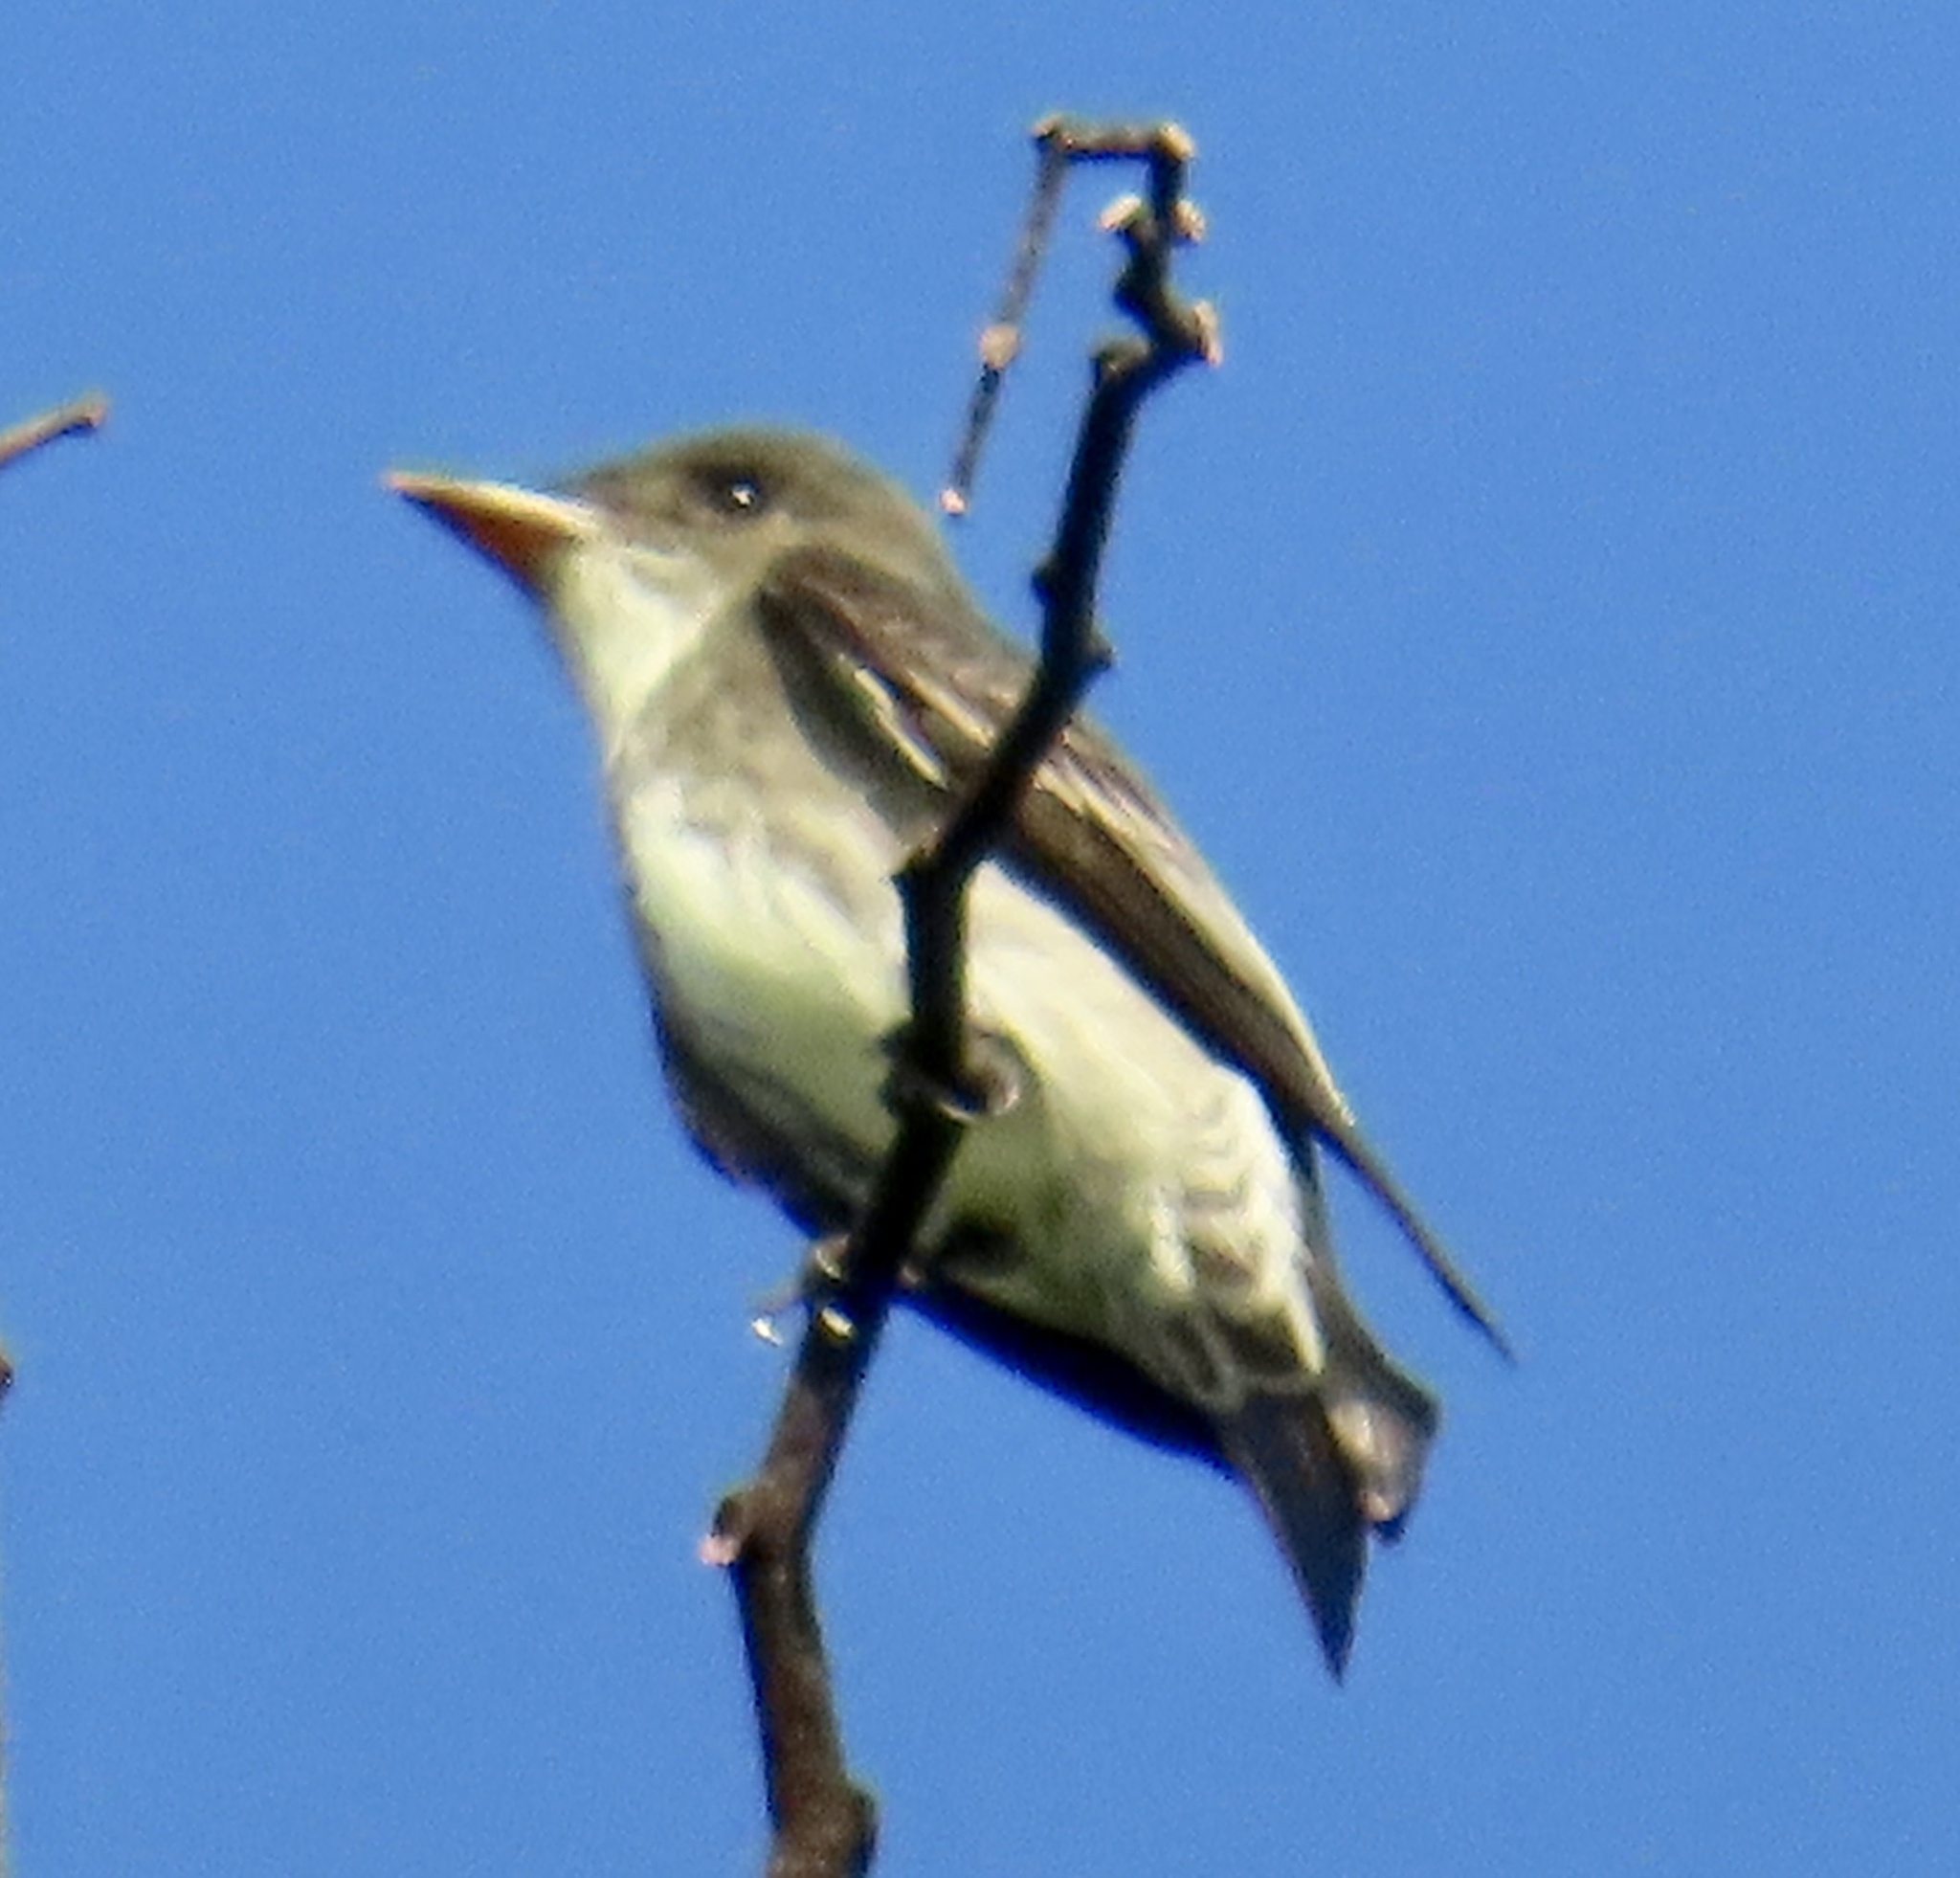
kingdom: Animalia
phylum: Chordata
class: Aves
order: Passeriformes
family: Tyrannidae
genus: Contopus
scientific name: Contopus cooperi
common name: Olive-sided flycatcher
